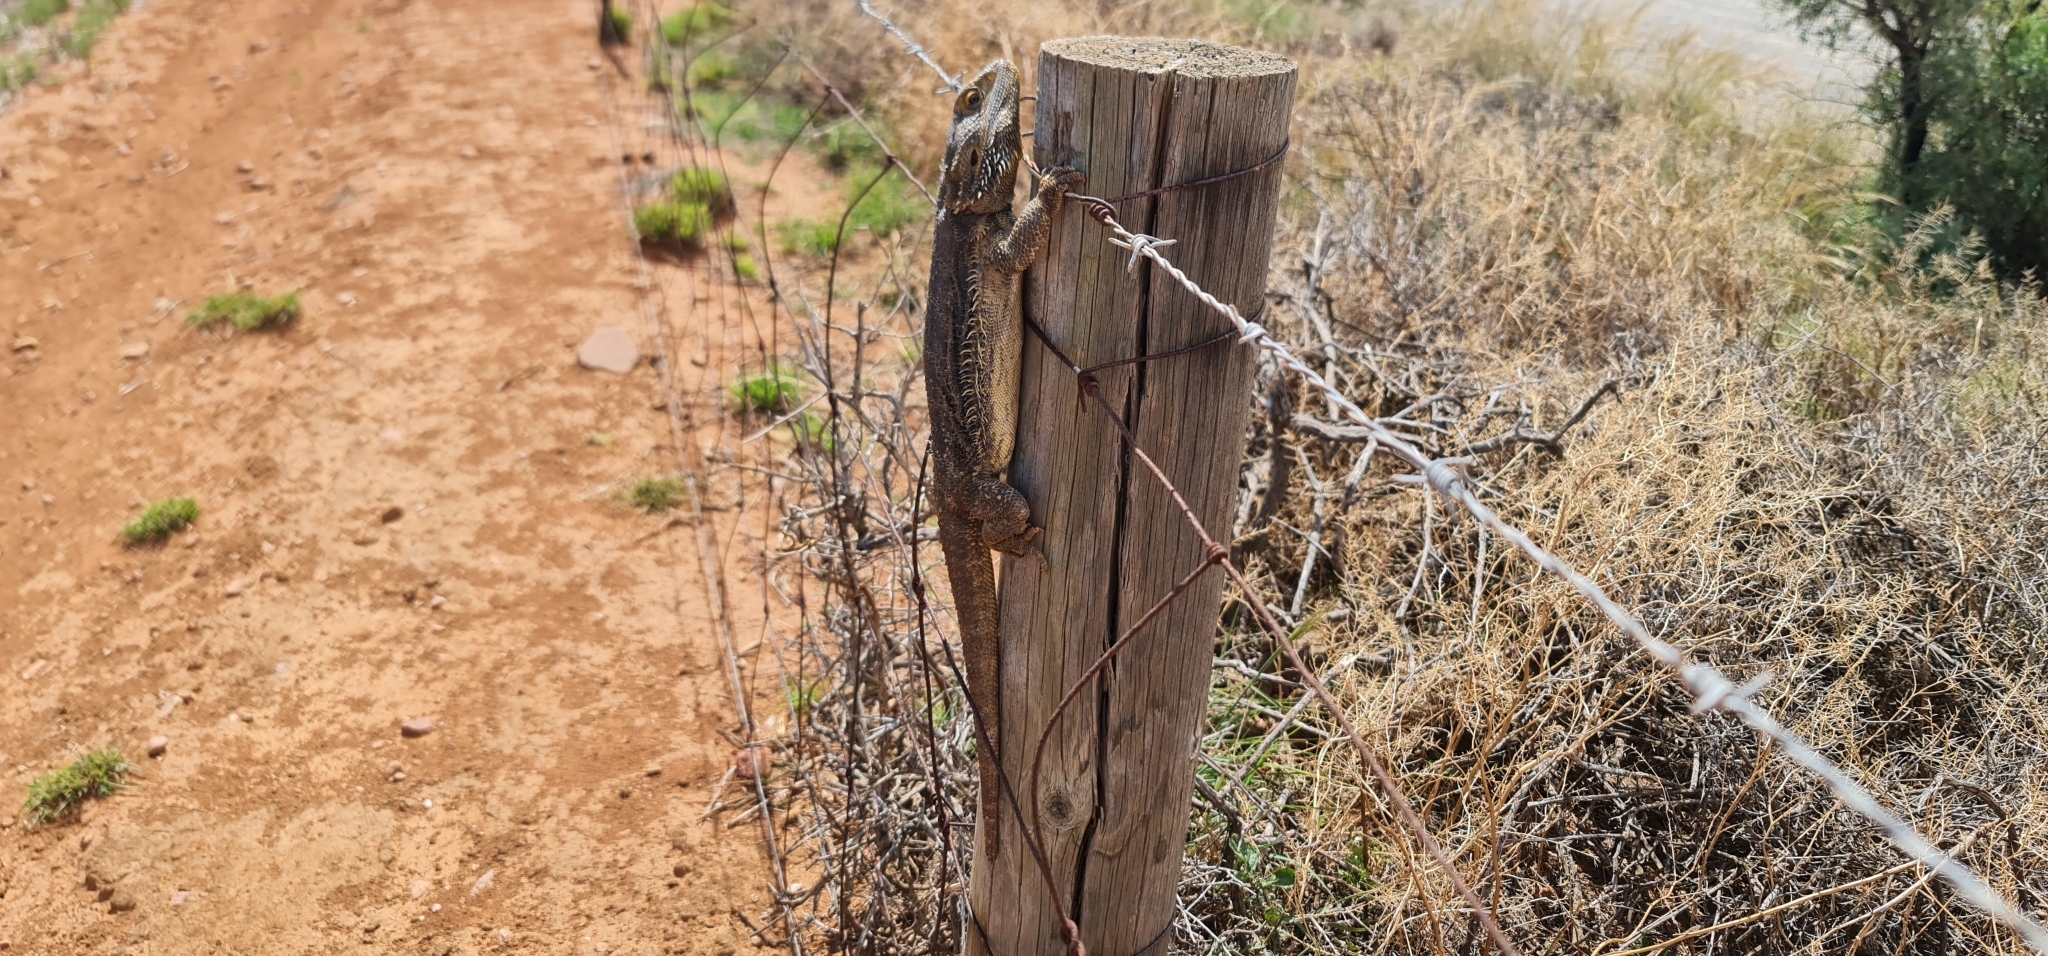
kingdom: Animalia
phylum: Chordata
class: Squamata
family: Agamidae
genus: Pogona
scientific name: Pogona vitticeps
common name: Central bearded dragon
